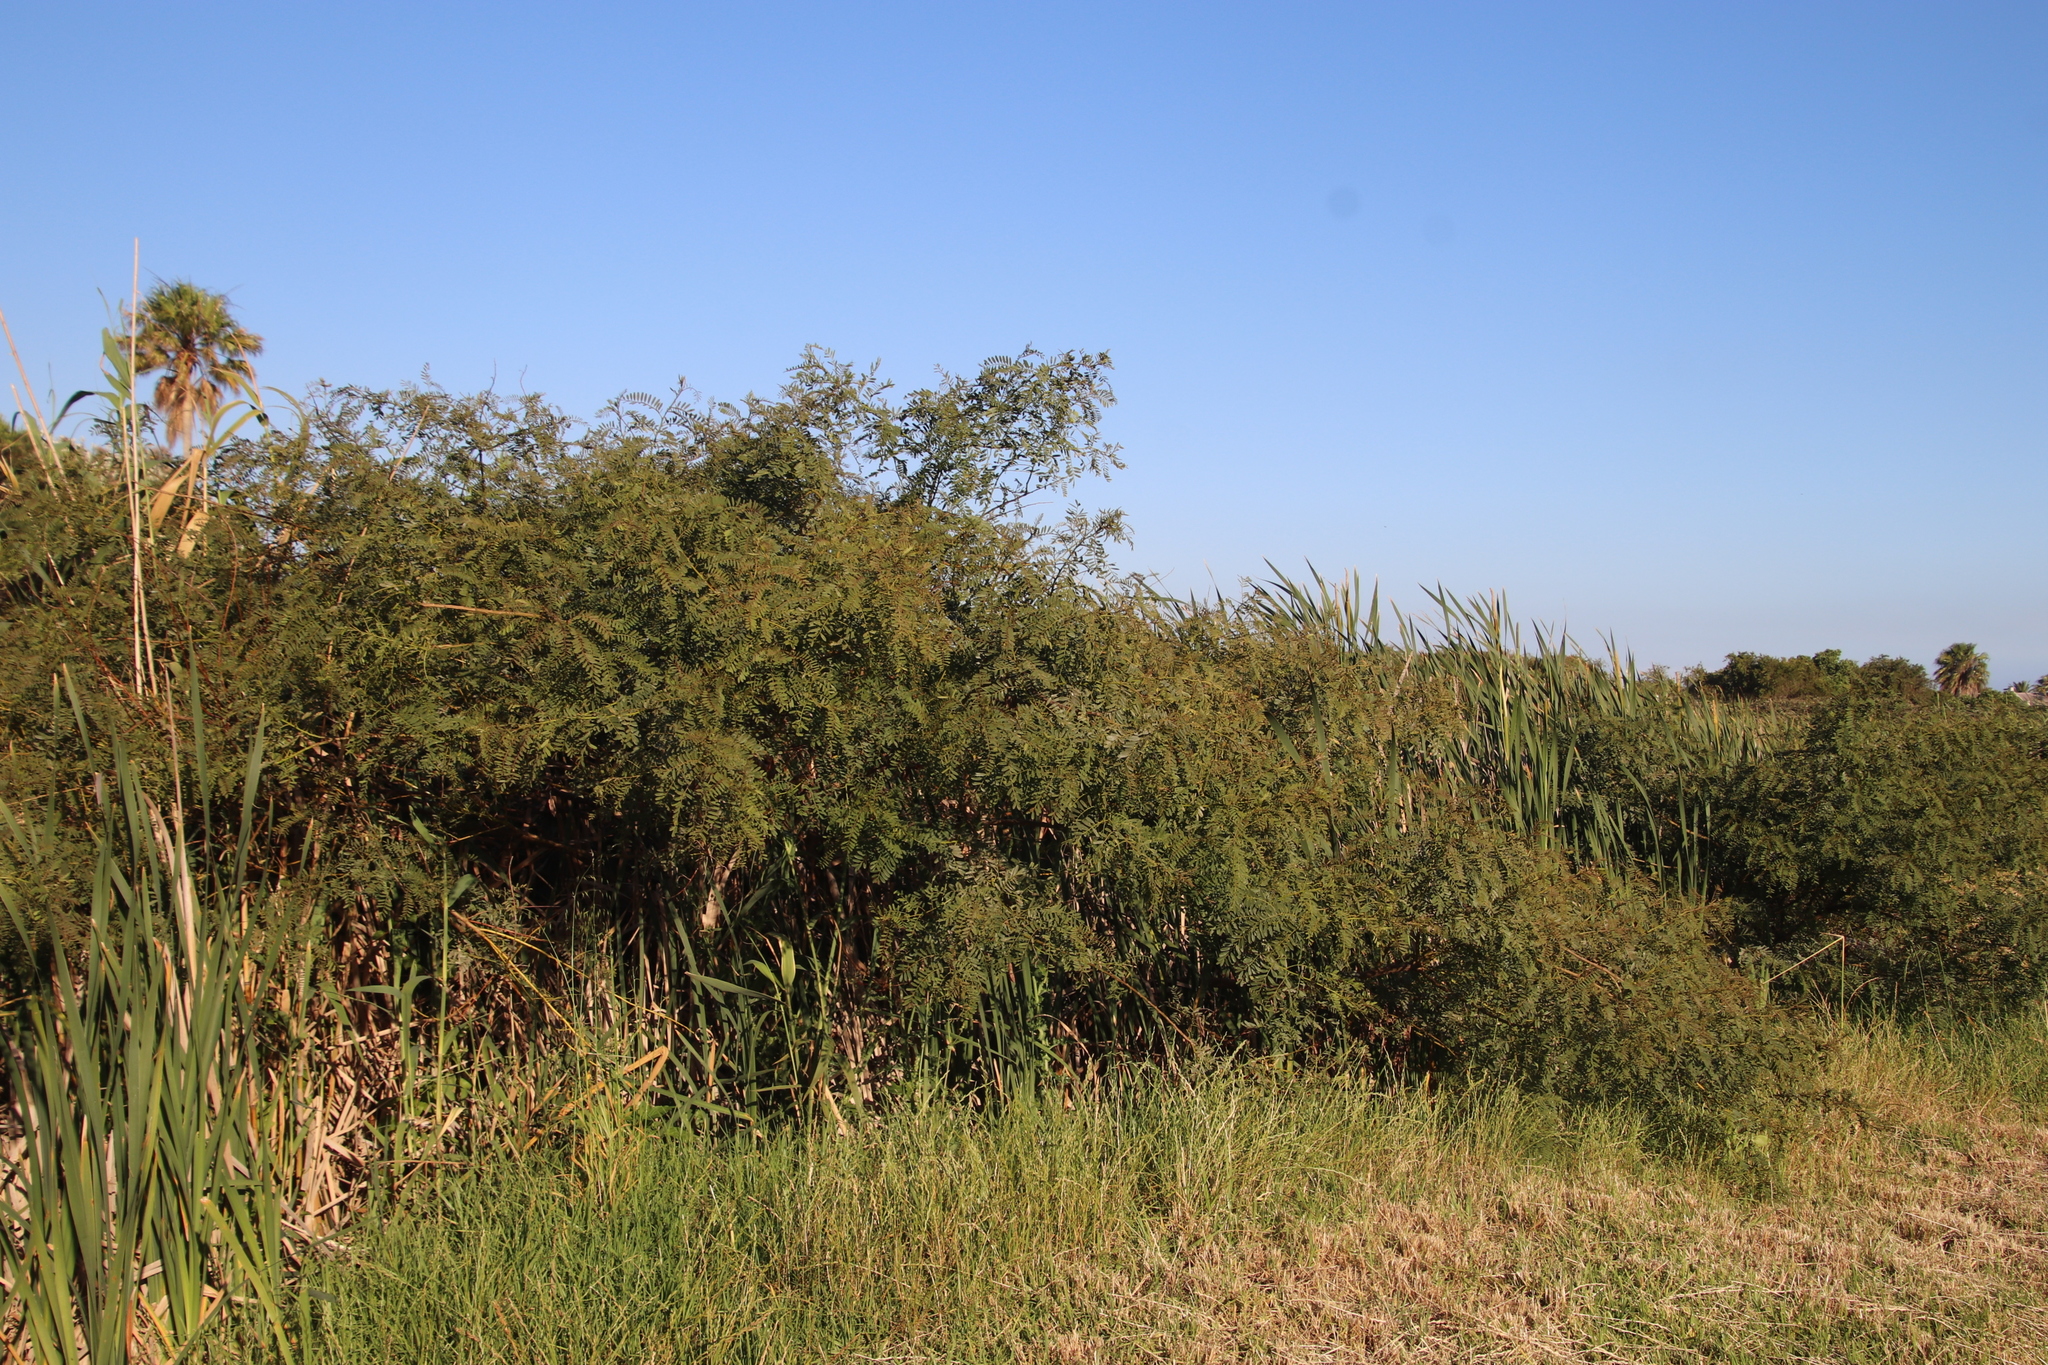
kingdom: Plantae
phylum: Tracheophyta
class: Magnoliopsida
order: Fabales
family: Fabaceae
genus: Sesbania
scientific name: Sesbania punicea
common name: Rattlebox
